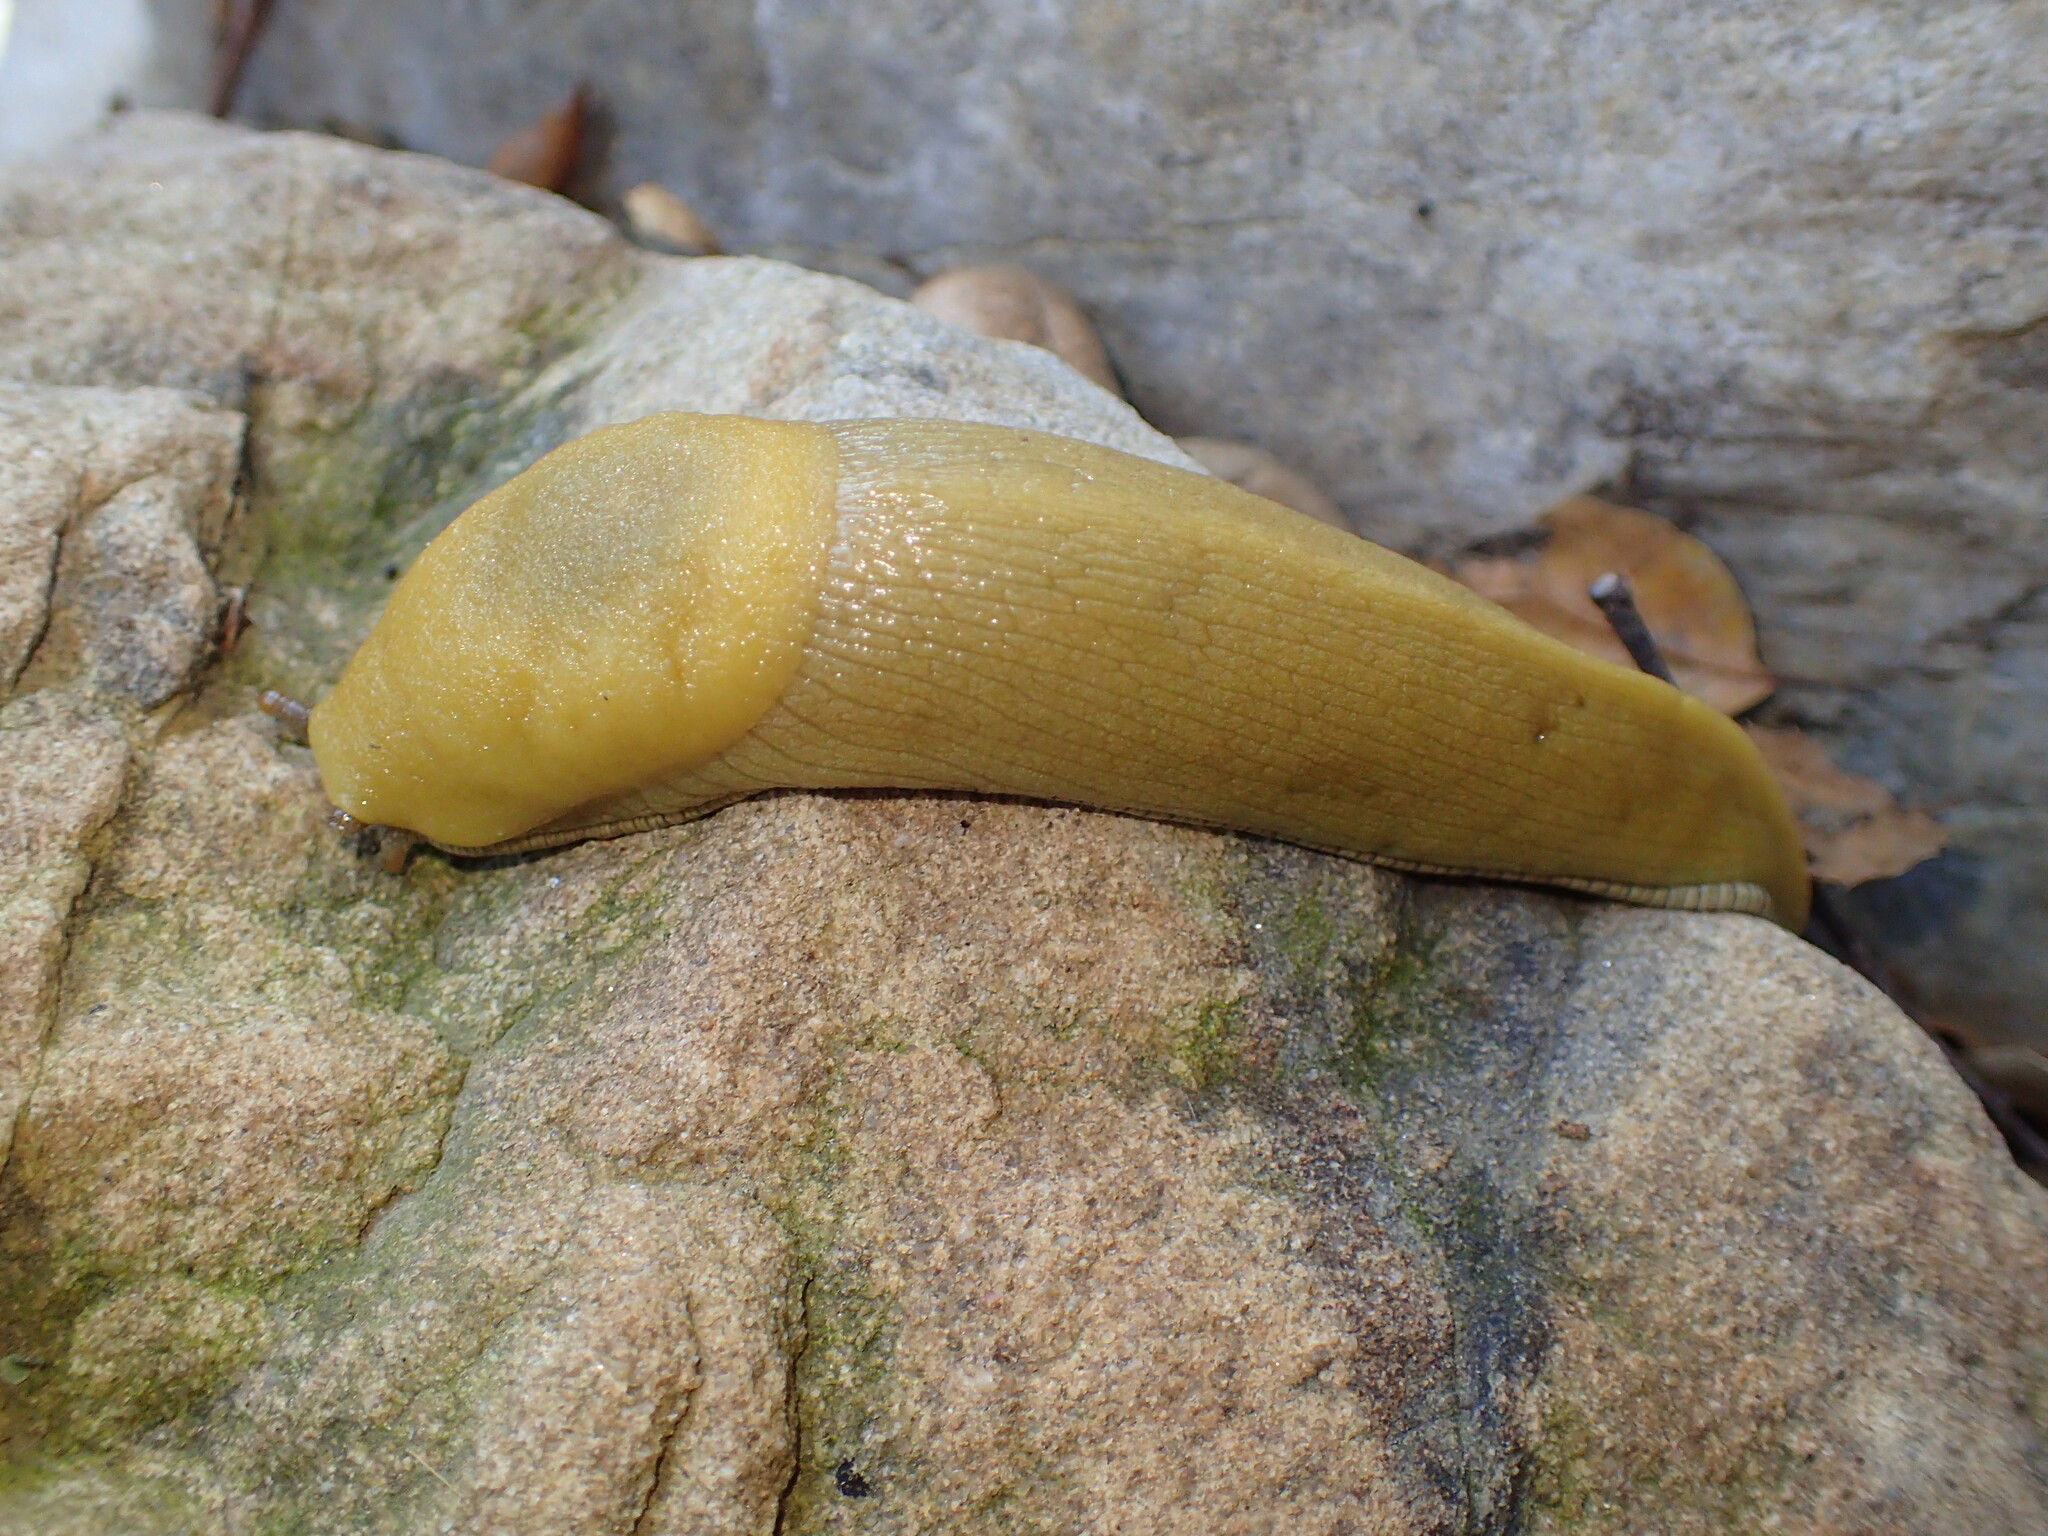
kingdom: Animalia
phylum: Mollusca
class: Gastropoda
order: Stylommatophora
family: Ariolimacidae
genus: Ariolimax
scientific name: Ariolimax stramineus
